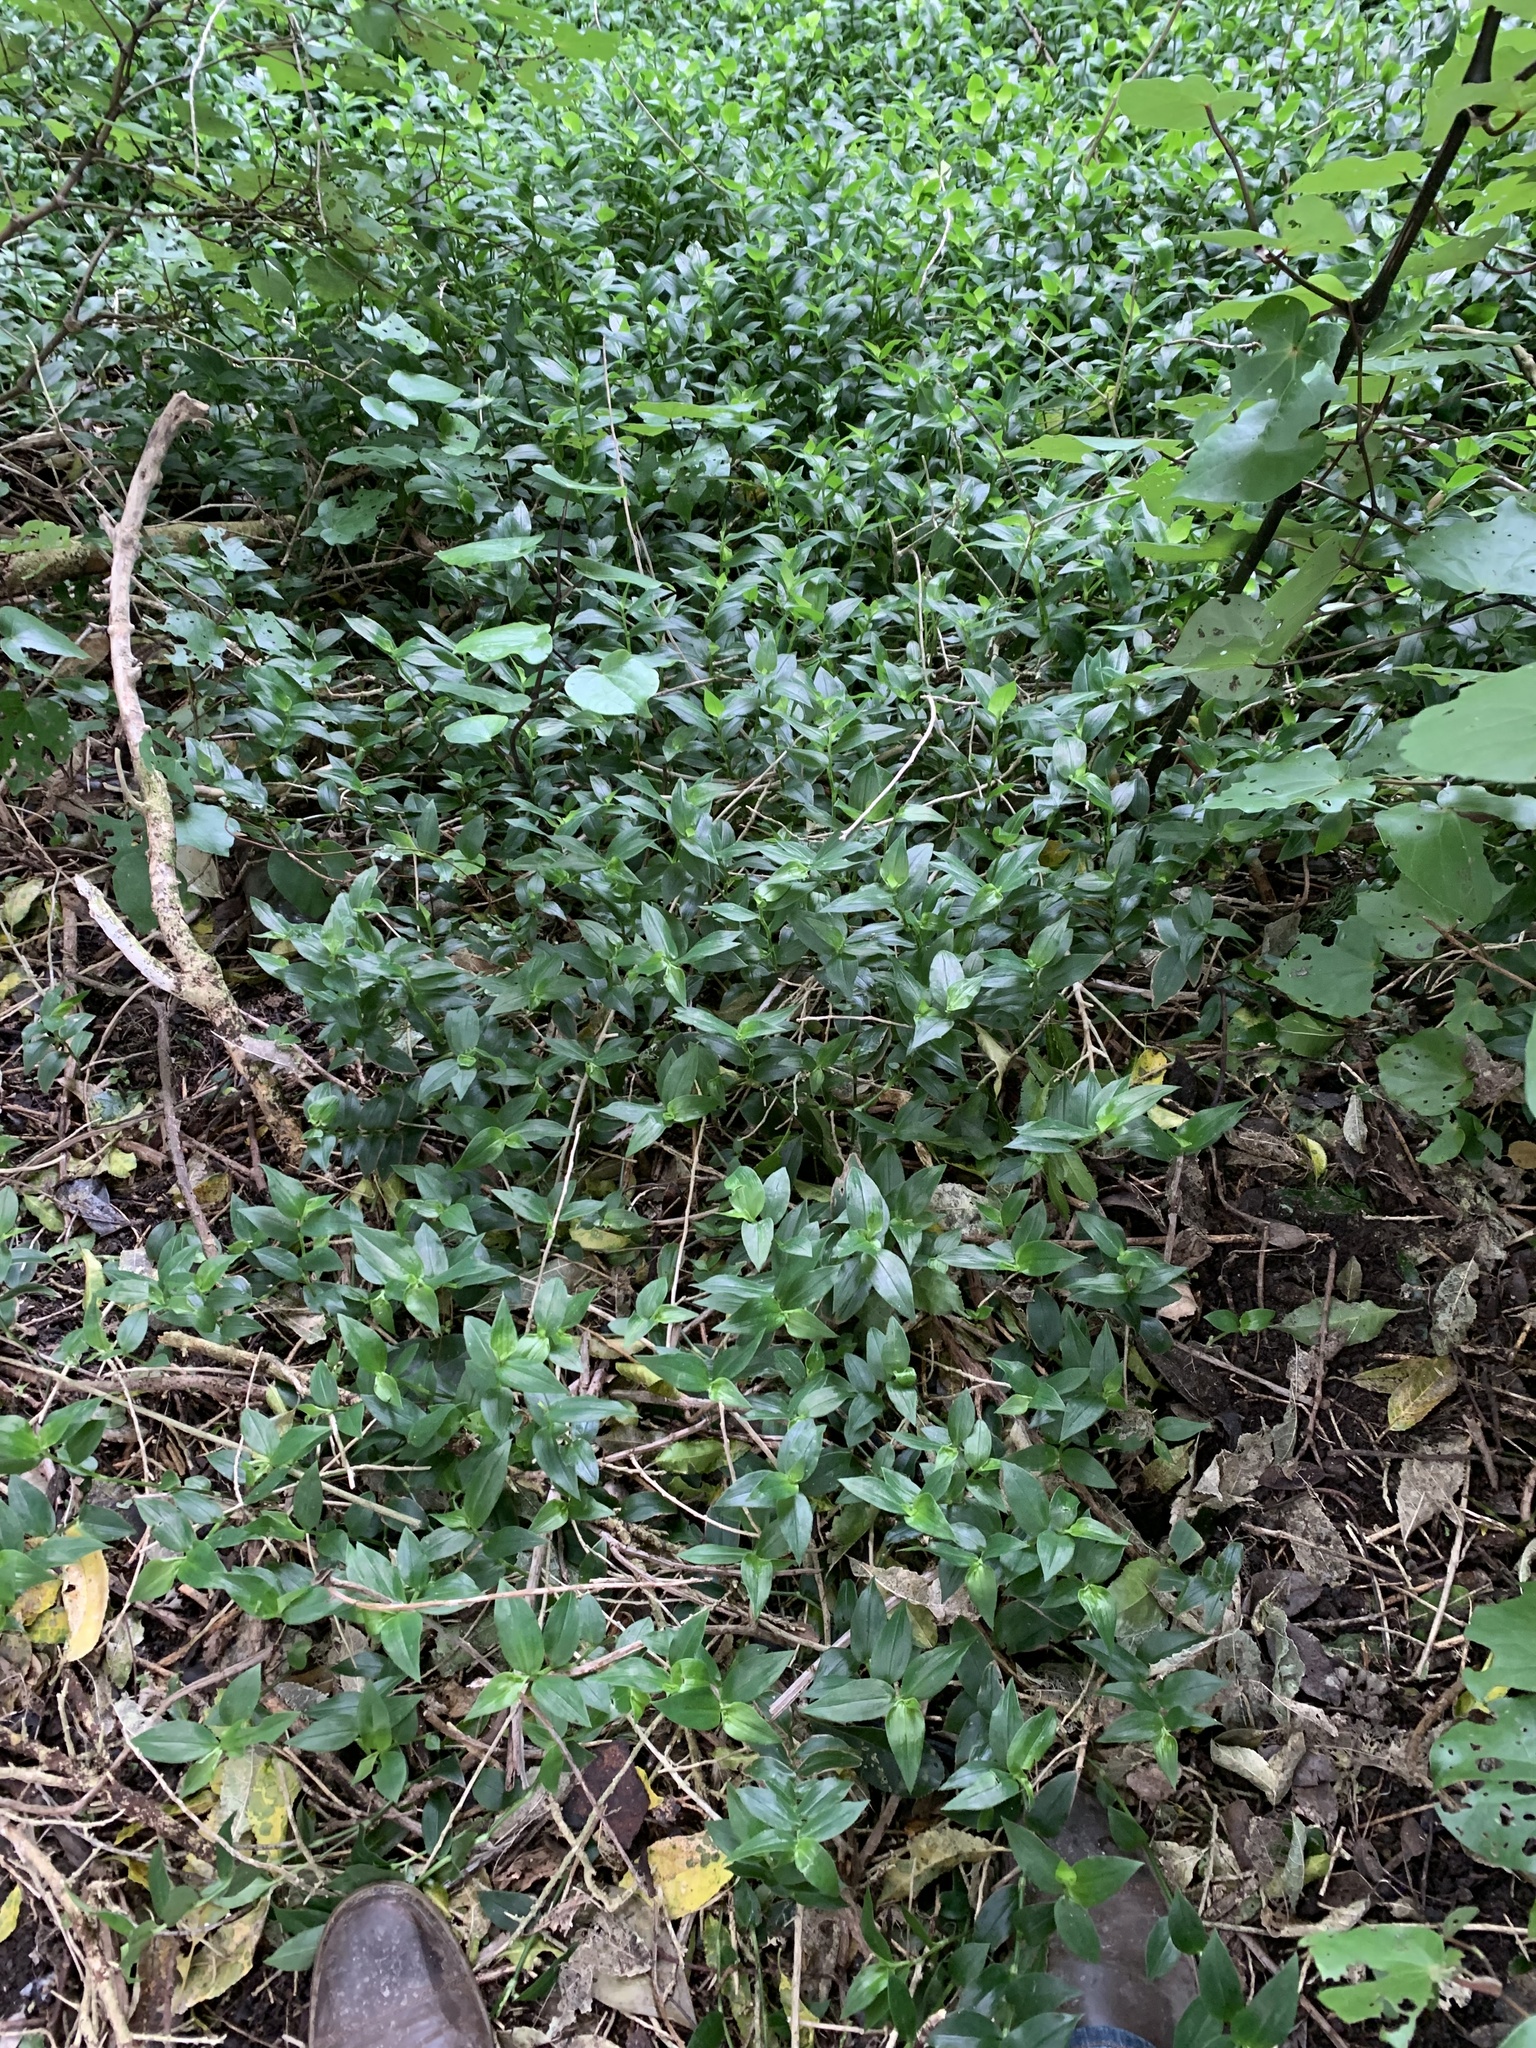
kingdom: Plantae
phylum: Tracheophyta
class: Liliopsida
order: Commelinales
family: Commelinaceae
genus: Tradescantia
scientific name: Tradescantia fluminensis
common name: Wandering-jew
